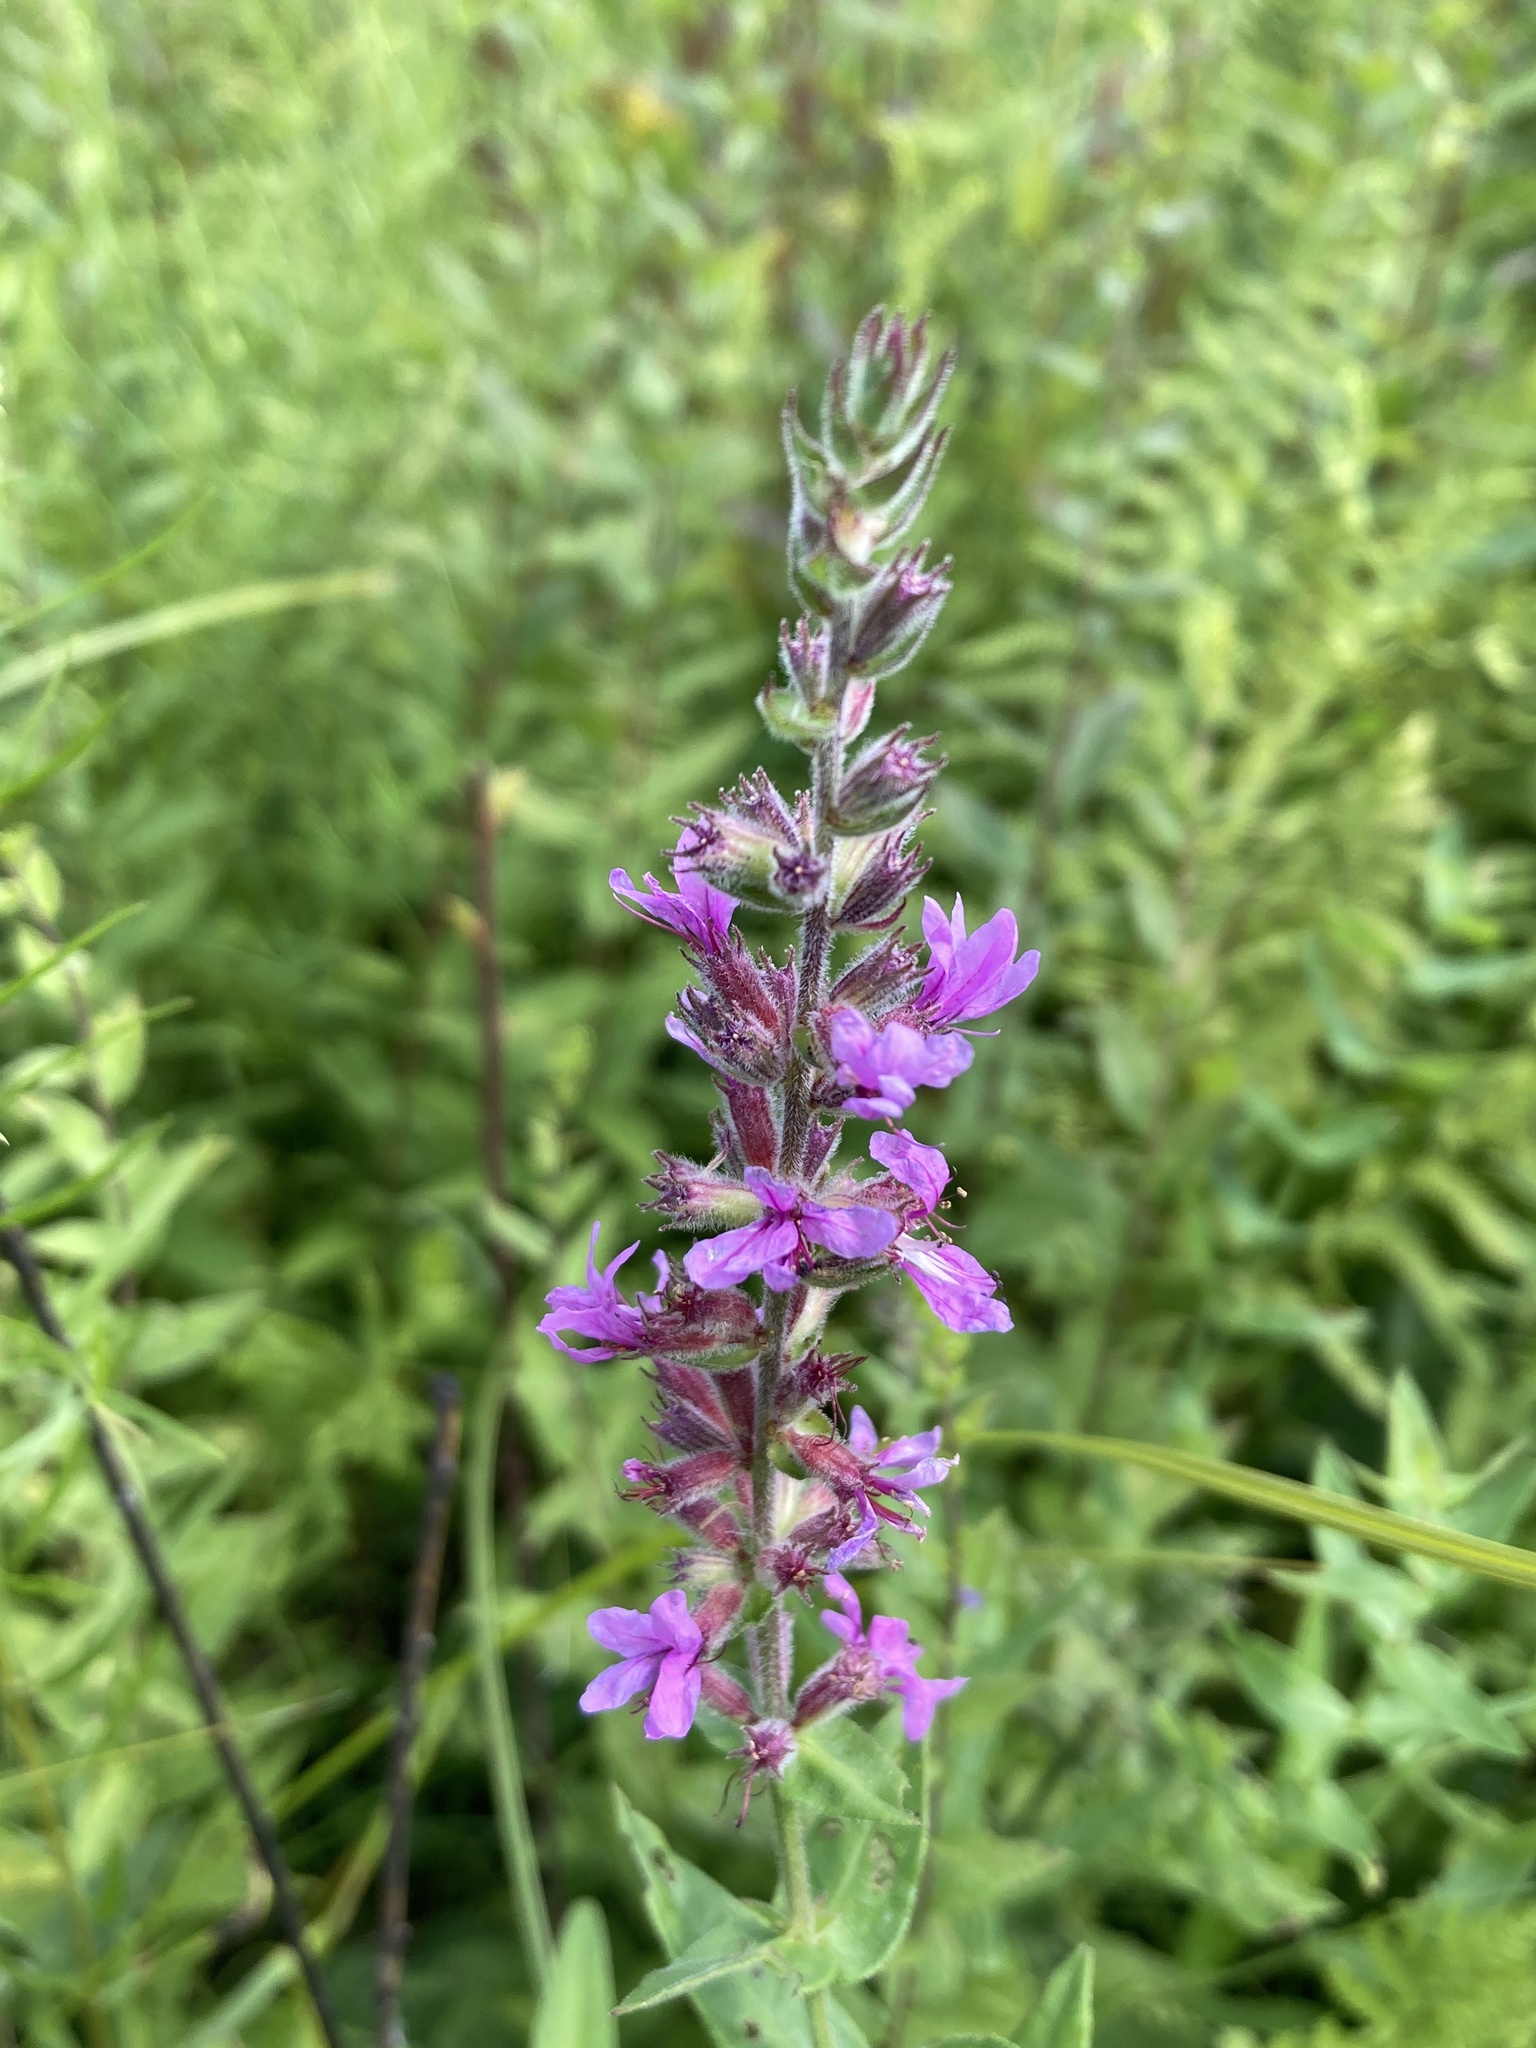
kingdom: Plantae
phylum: Tracheophyta
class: Magnoliopsida
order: Myrtales
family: Lythraceae
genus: Lythrum
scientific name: Lythrum salicaria
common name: Purple loosestrife
